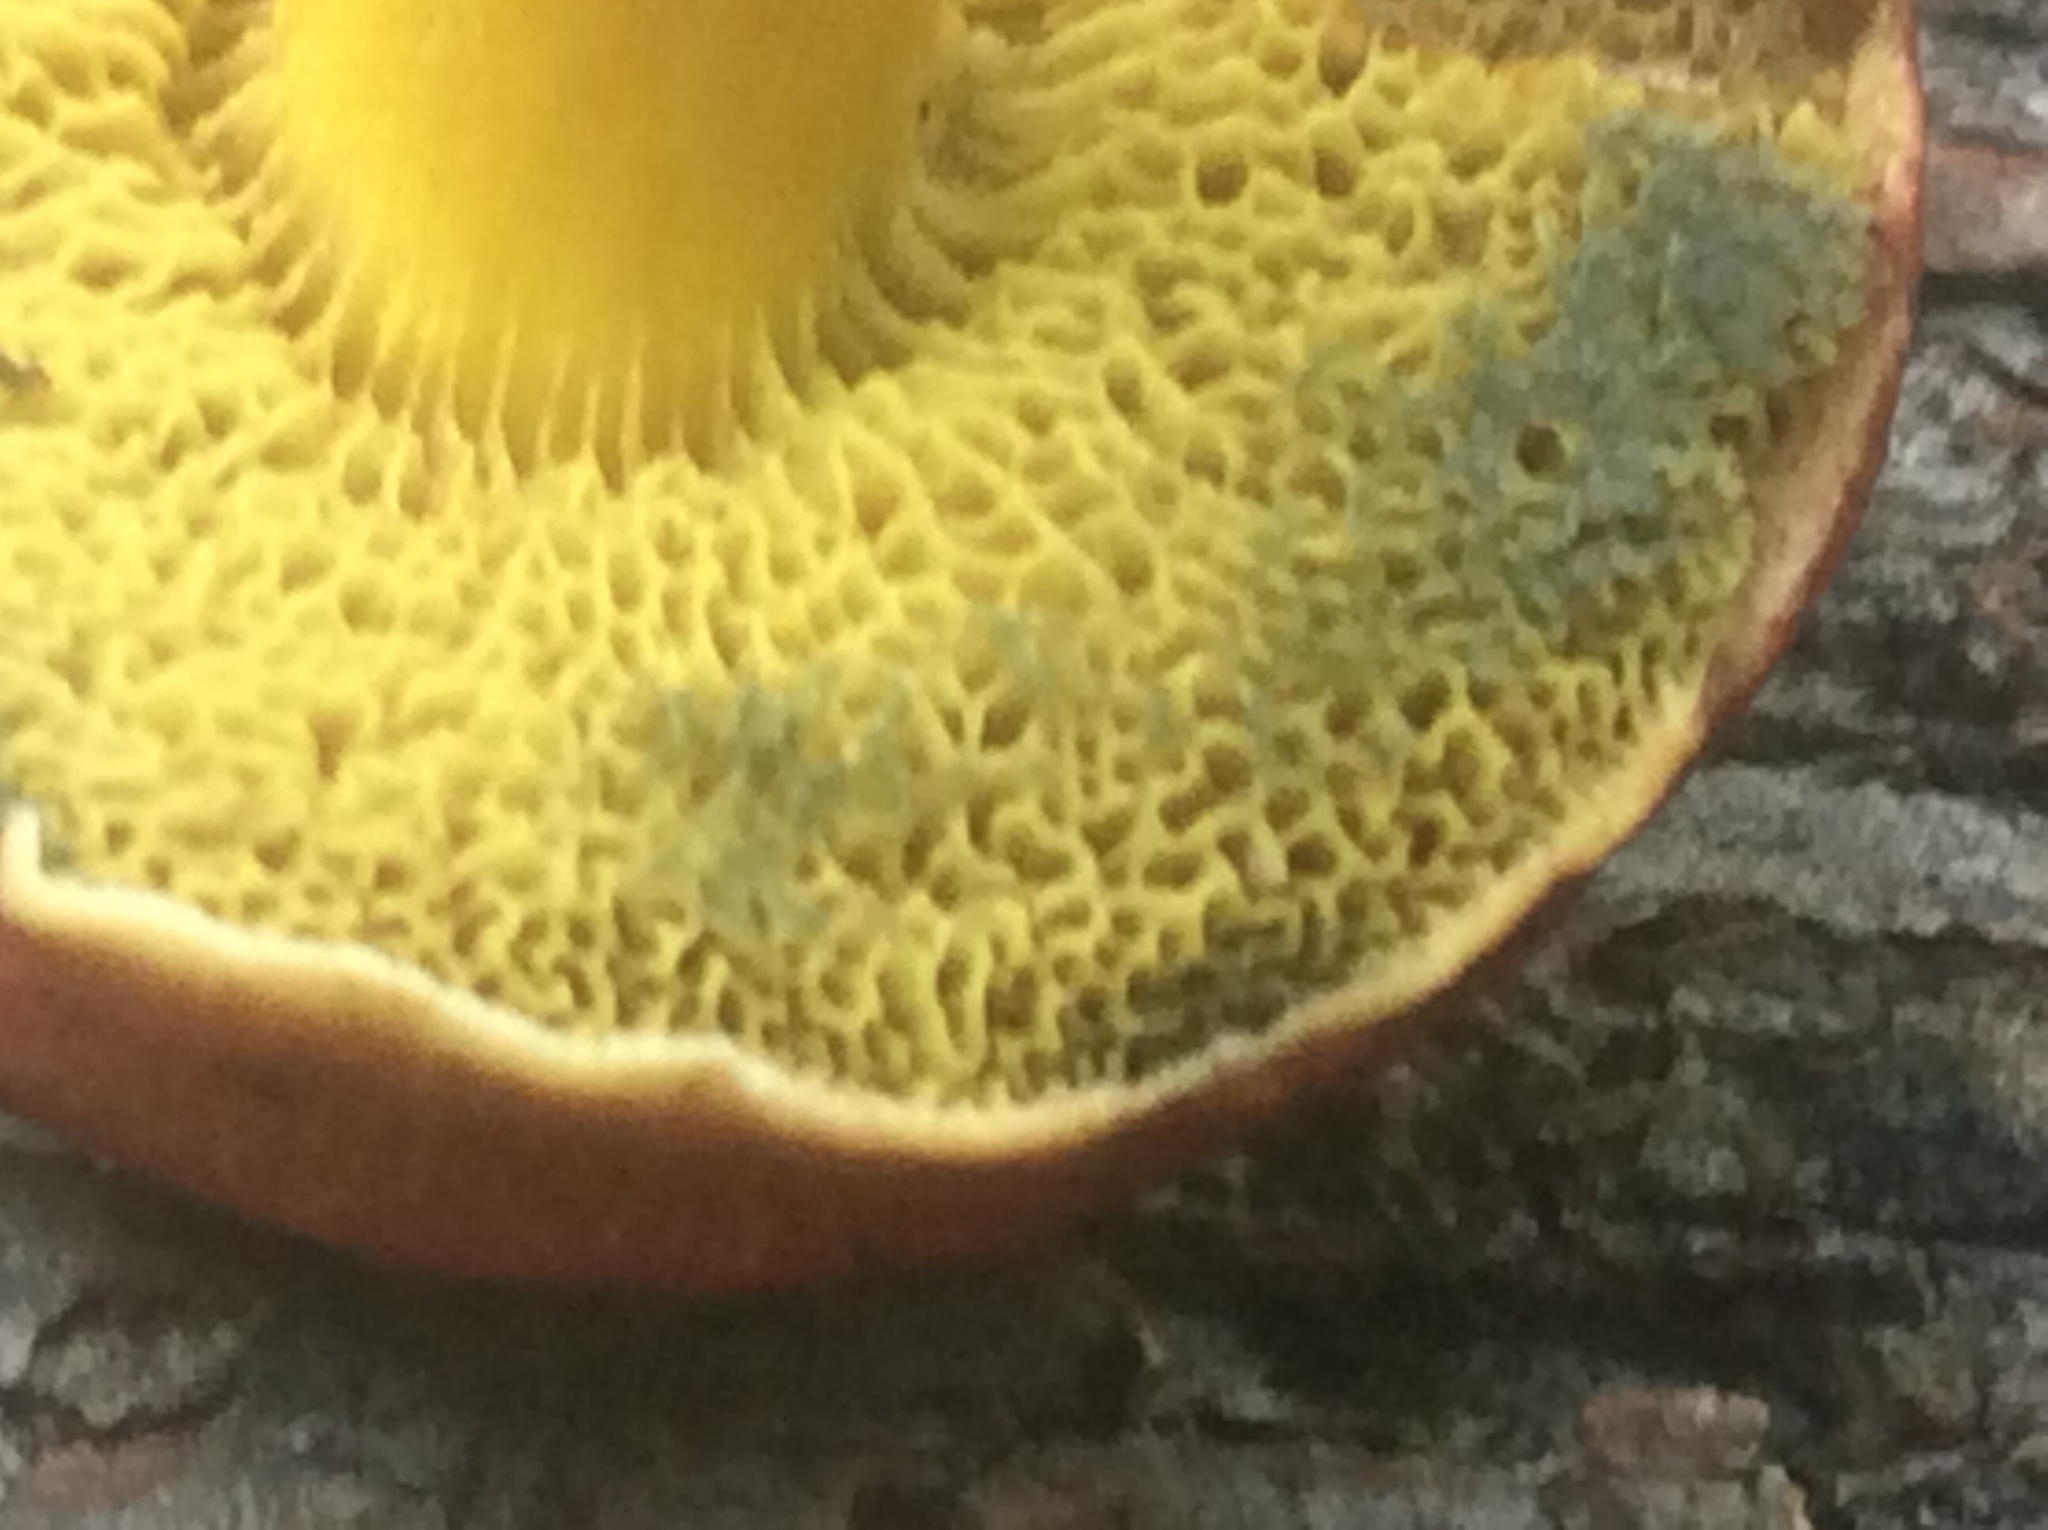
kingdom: Fungi
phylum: Basidiomycota
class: Agaricomycetes
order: Boletales
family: Boletaceae
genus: Hortiboletus
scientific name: Hortiboletus rubellus
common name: Ruby bolete
